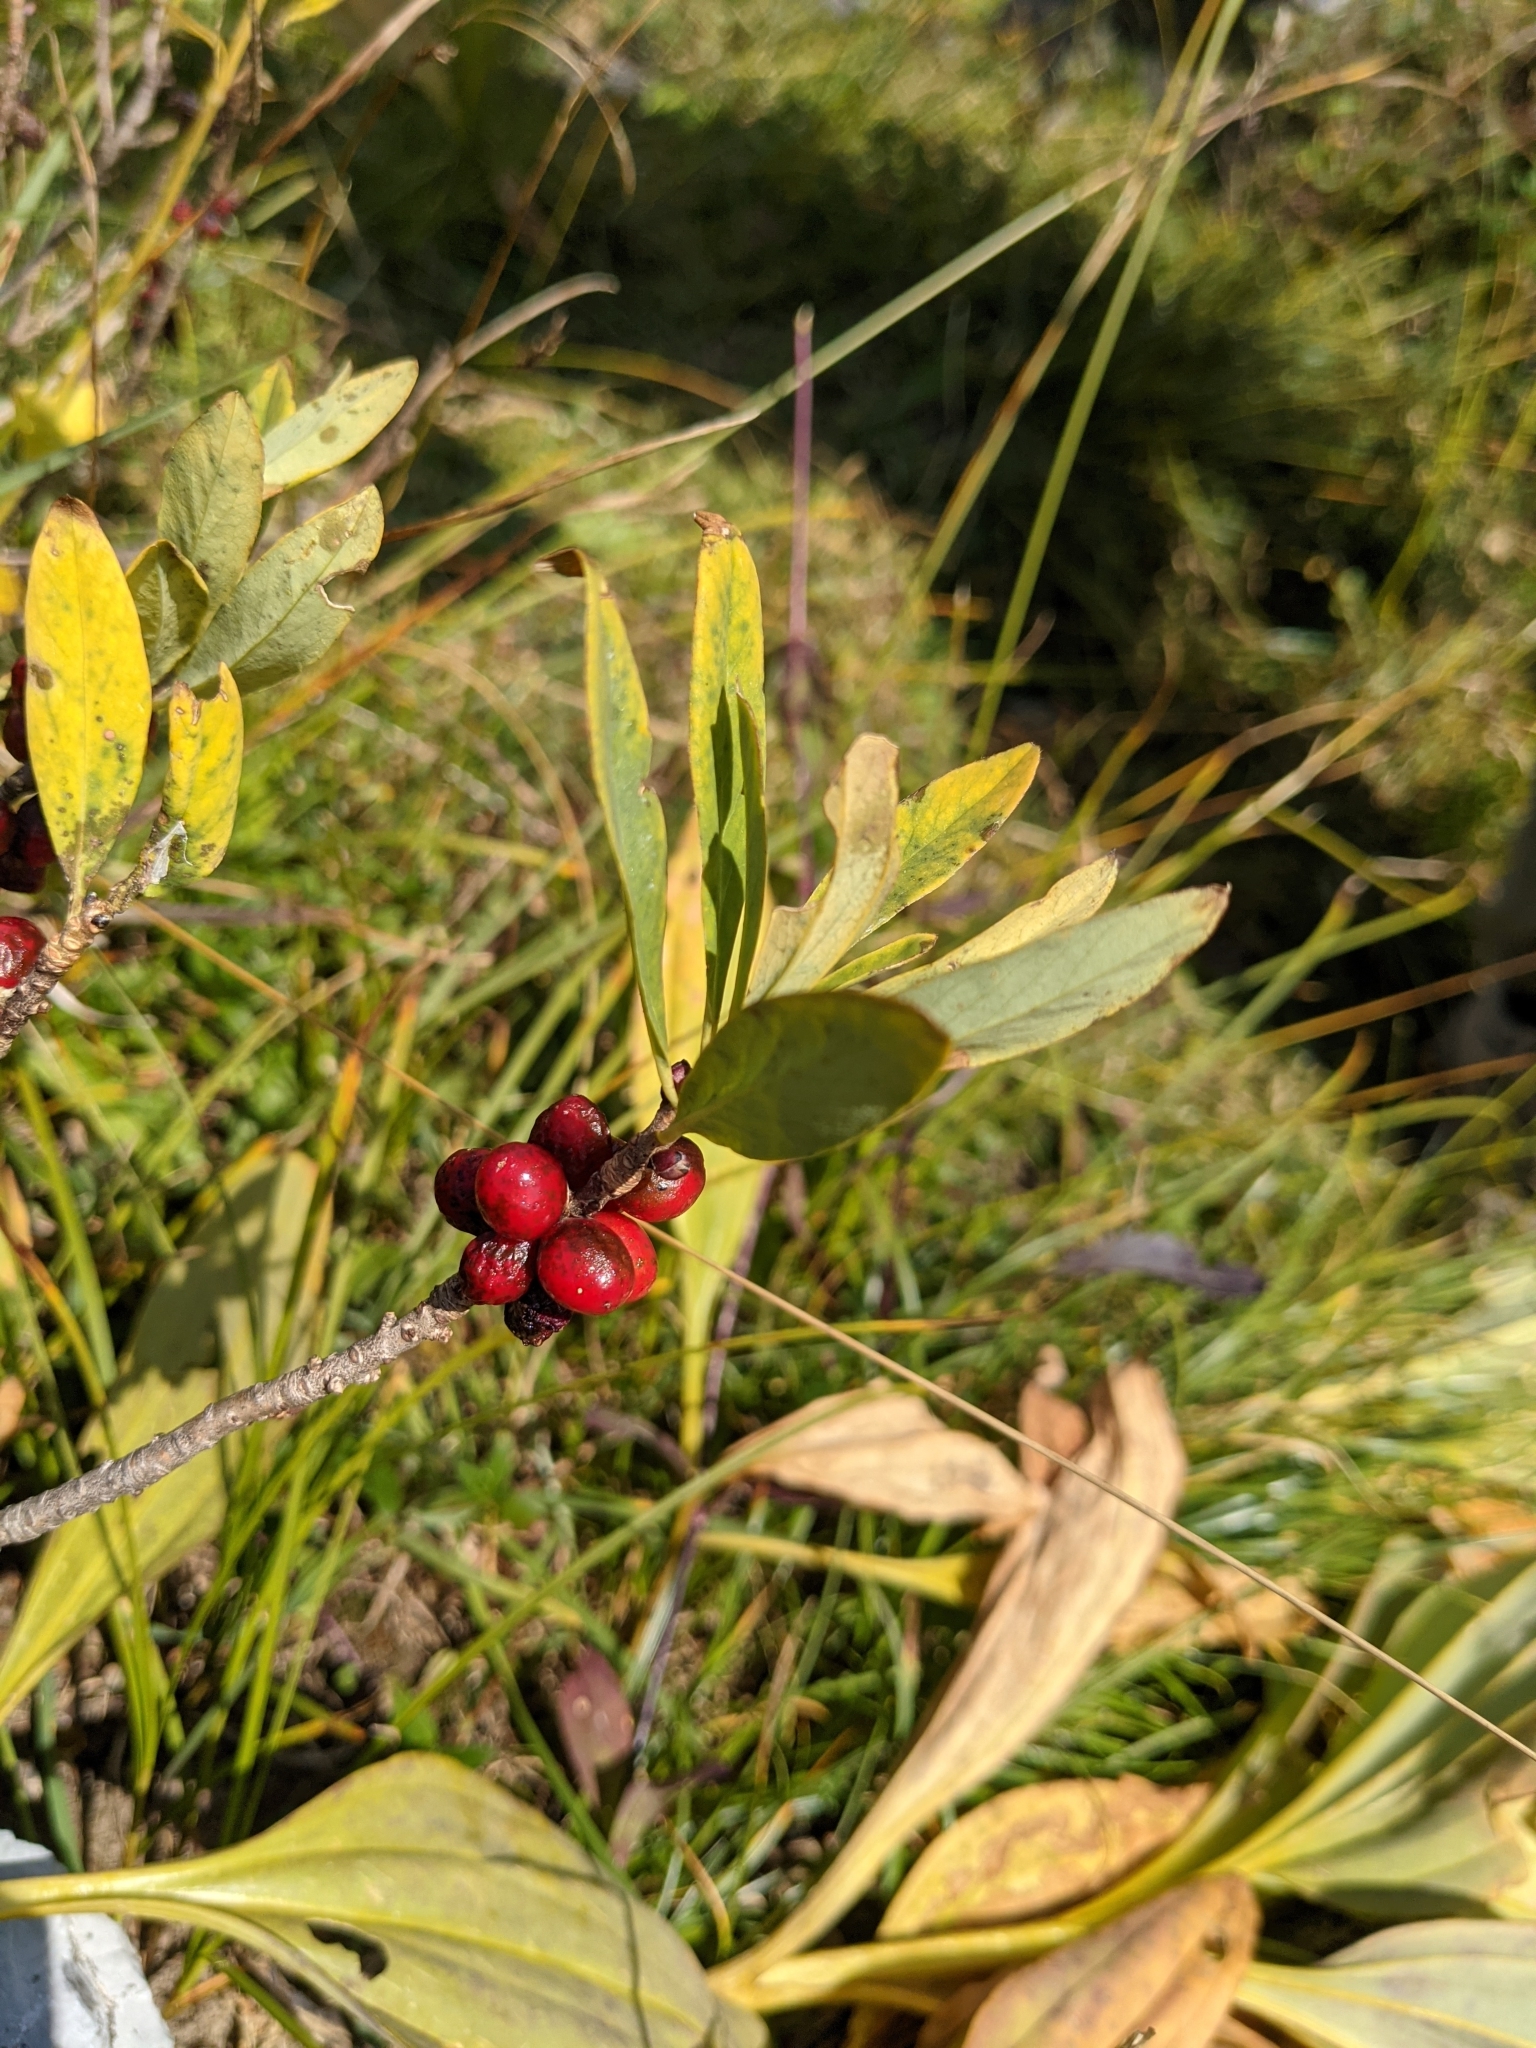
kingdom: Plantae
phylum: Tracheophyta
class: Magnoliopsida
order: Malvales
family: Thymelaeaceae
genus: Daphne
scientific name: Daphne mezereum
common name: Mezereon
